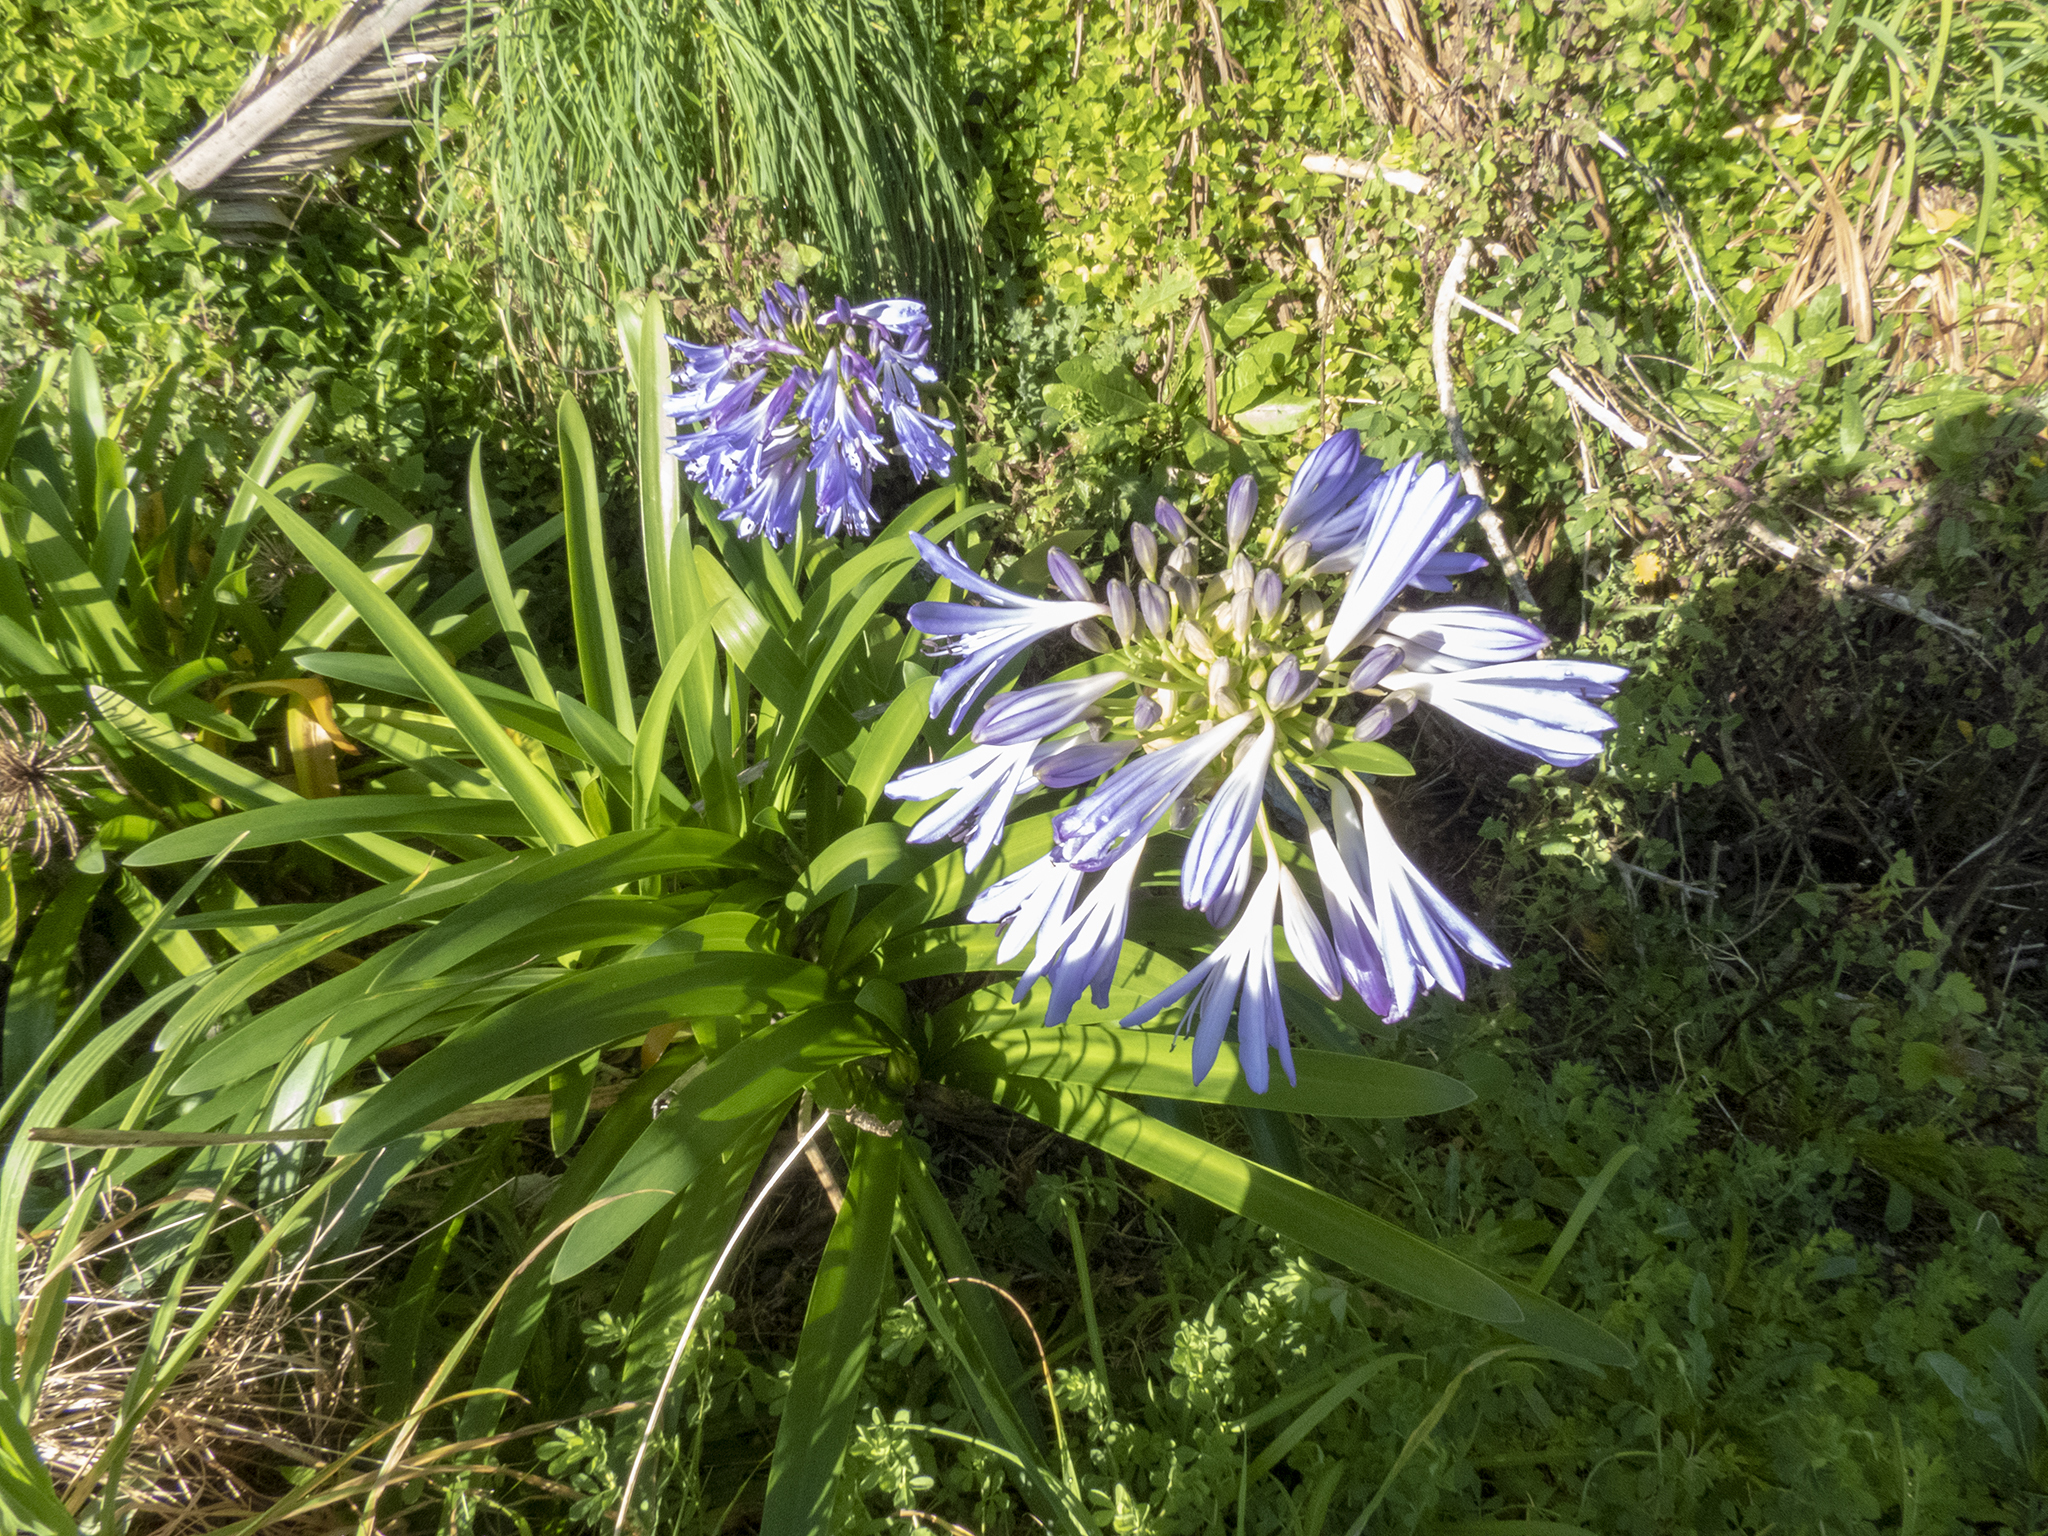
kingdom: Plantae
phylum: Tracheophyta
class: Liliopsida
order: Asparagales
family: Amaryllidaceae
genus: Agapanthus
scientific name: Agapanthus praecox
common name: African-lily
